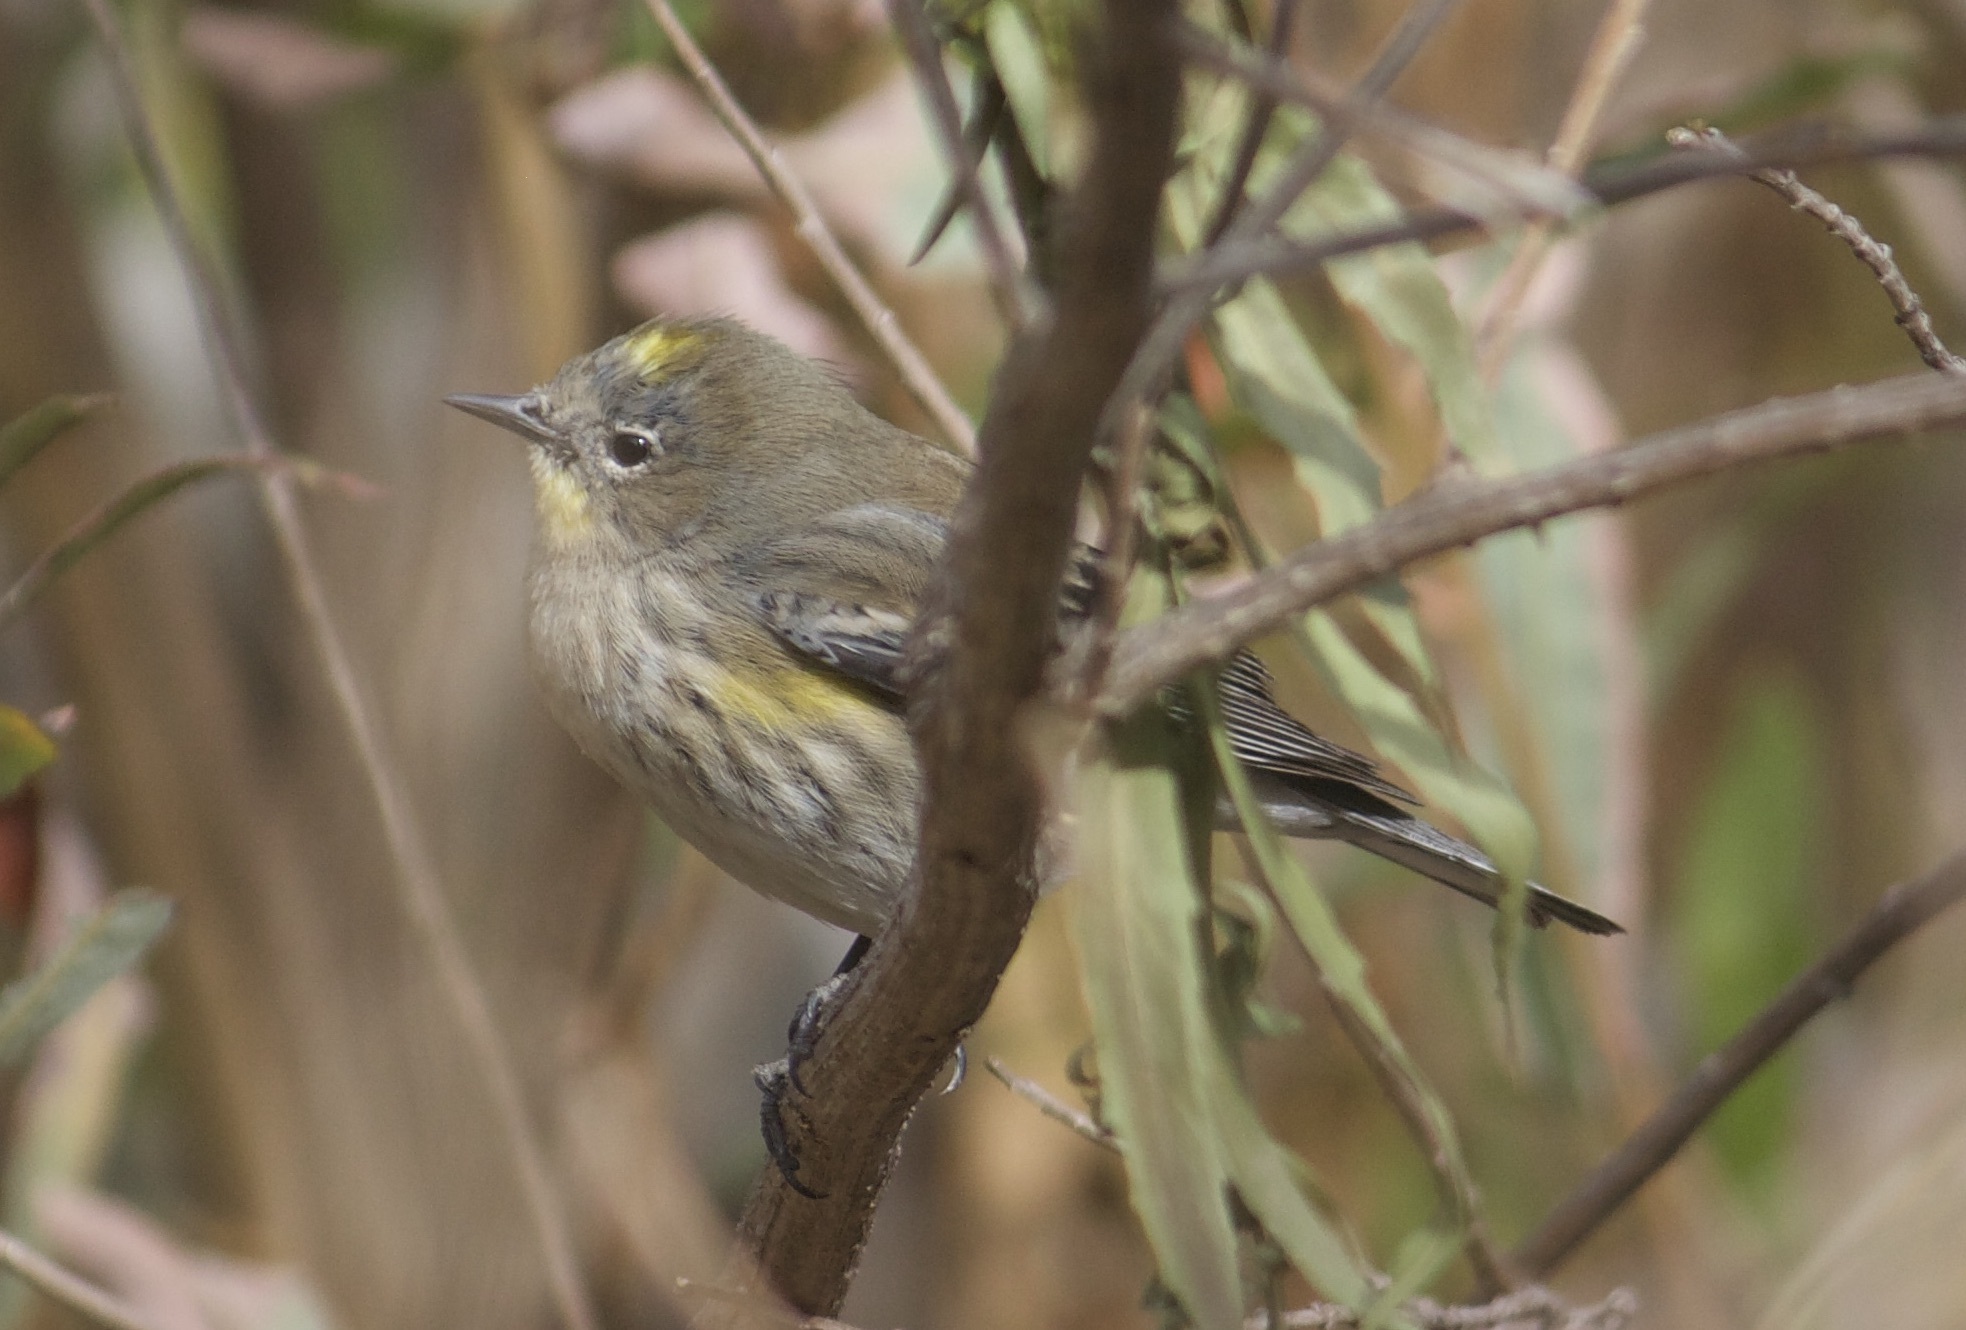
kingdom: Animalia
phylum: Chordata
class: Aves
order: Passeriformes
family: Parulidae
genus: Setophaga
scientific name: Setophaga coronata
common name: Myrtle warbler
